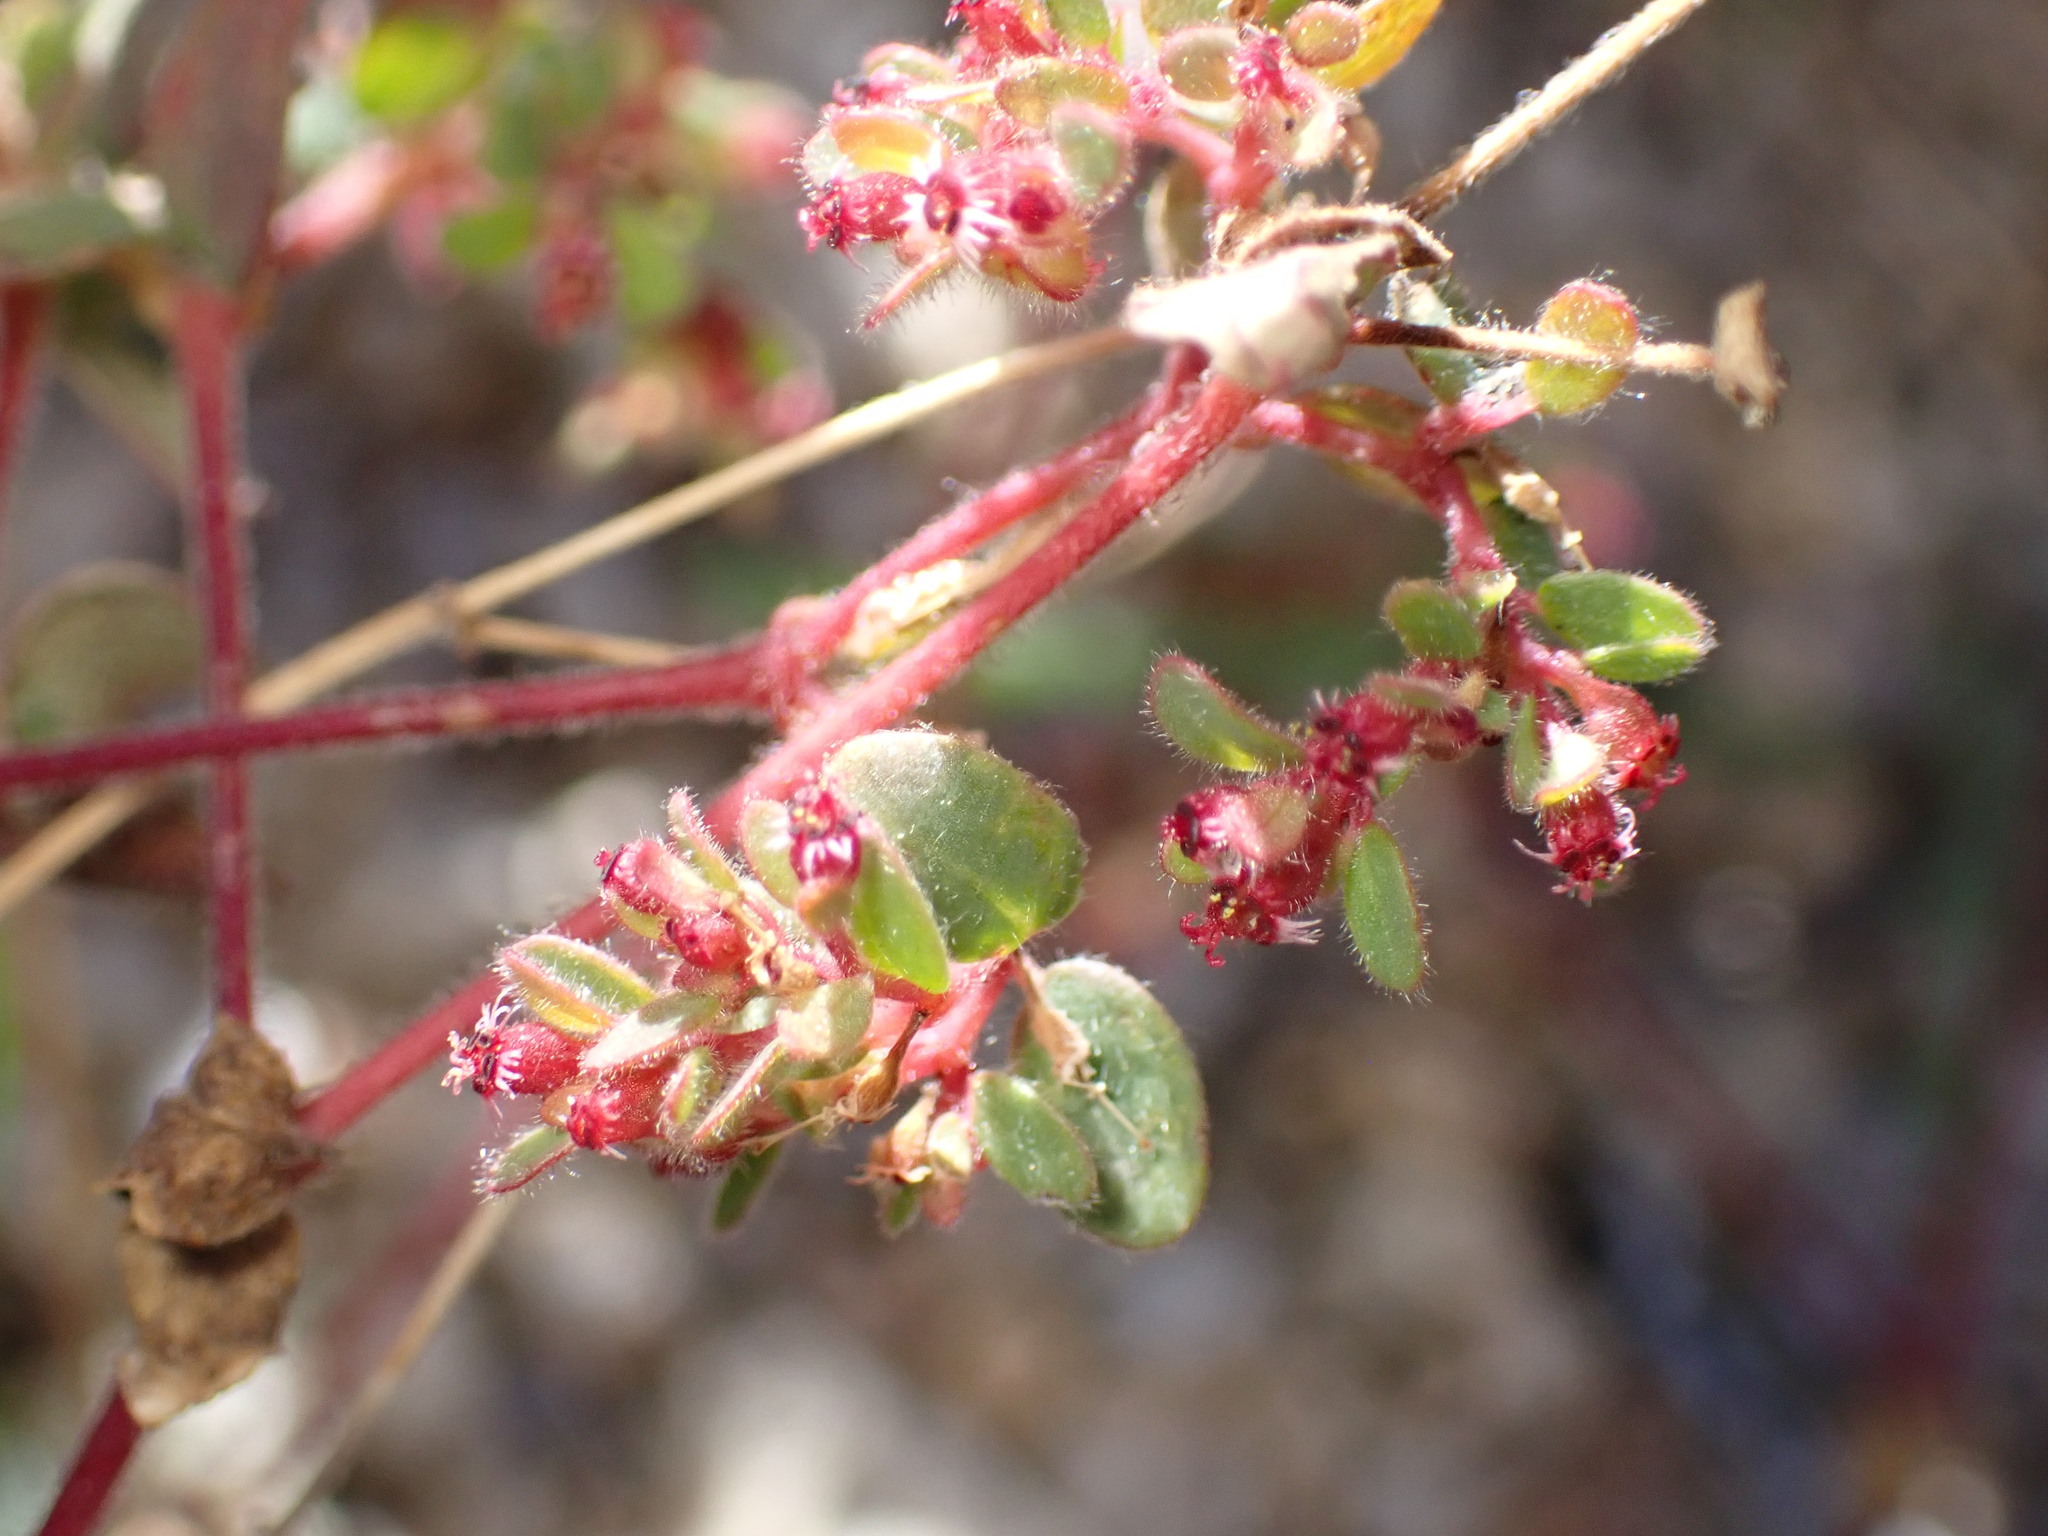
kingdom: Plantae
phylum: Tracheophyta
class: Magnoliopsida
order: Malpighiales
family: Euphorbiaceae
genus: Euphorbia
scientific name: Euphorbia setiloba
